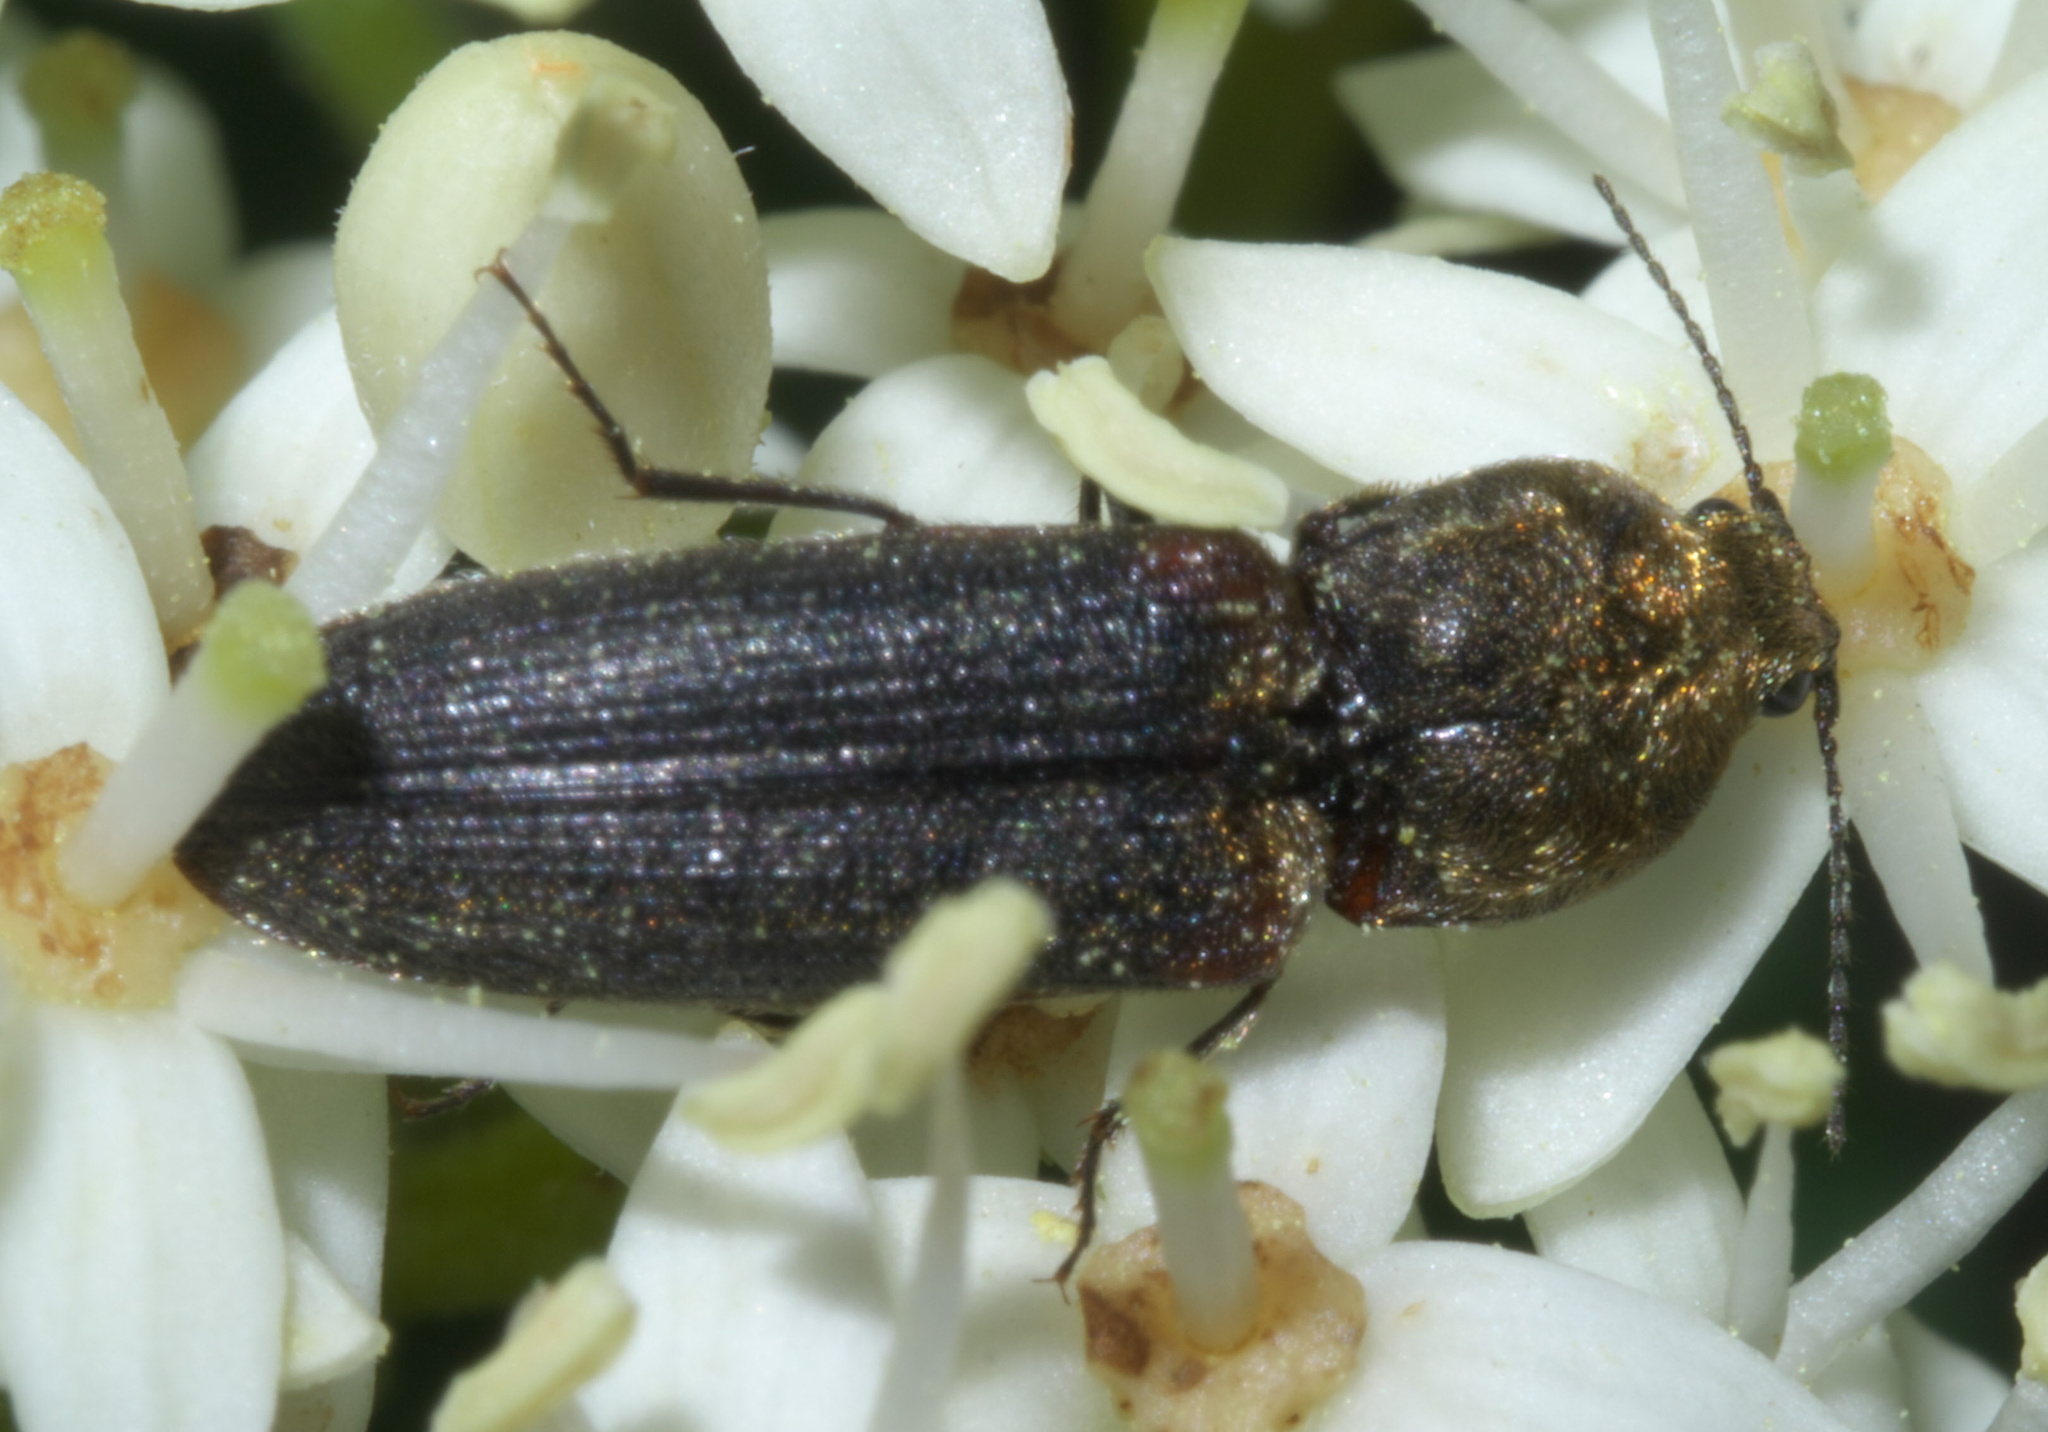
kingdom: Animalia
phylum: Arthropoda
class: Insecta
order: Coleoptera
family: Elateridae
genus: Limonius
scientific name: Limonius auripilis
